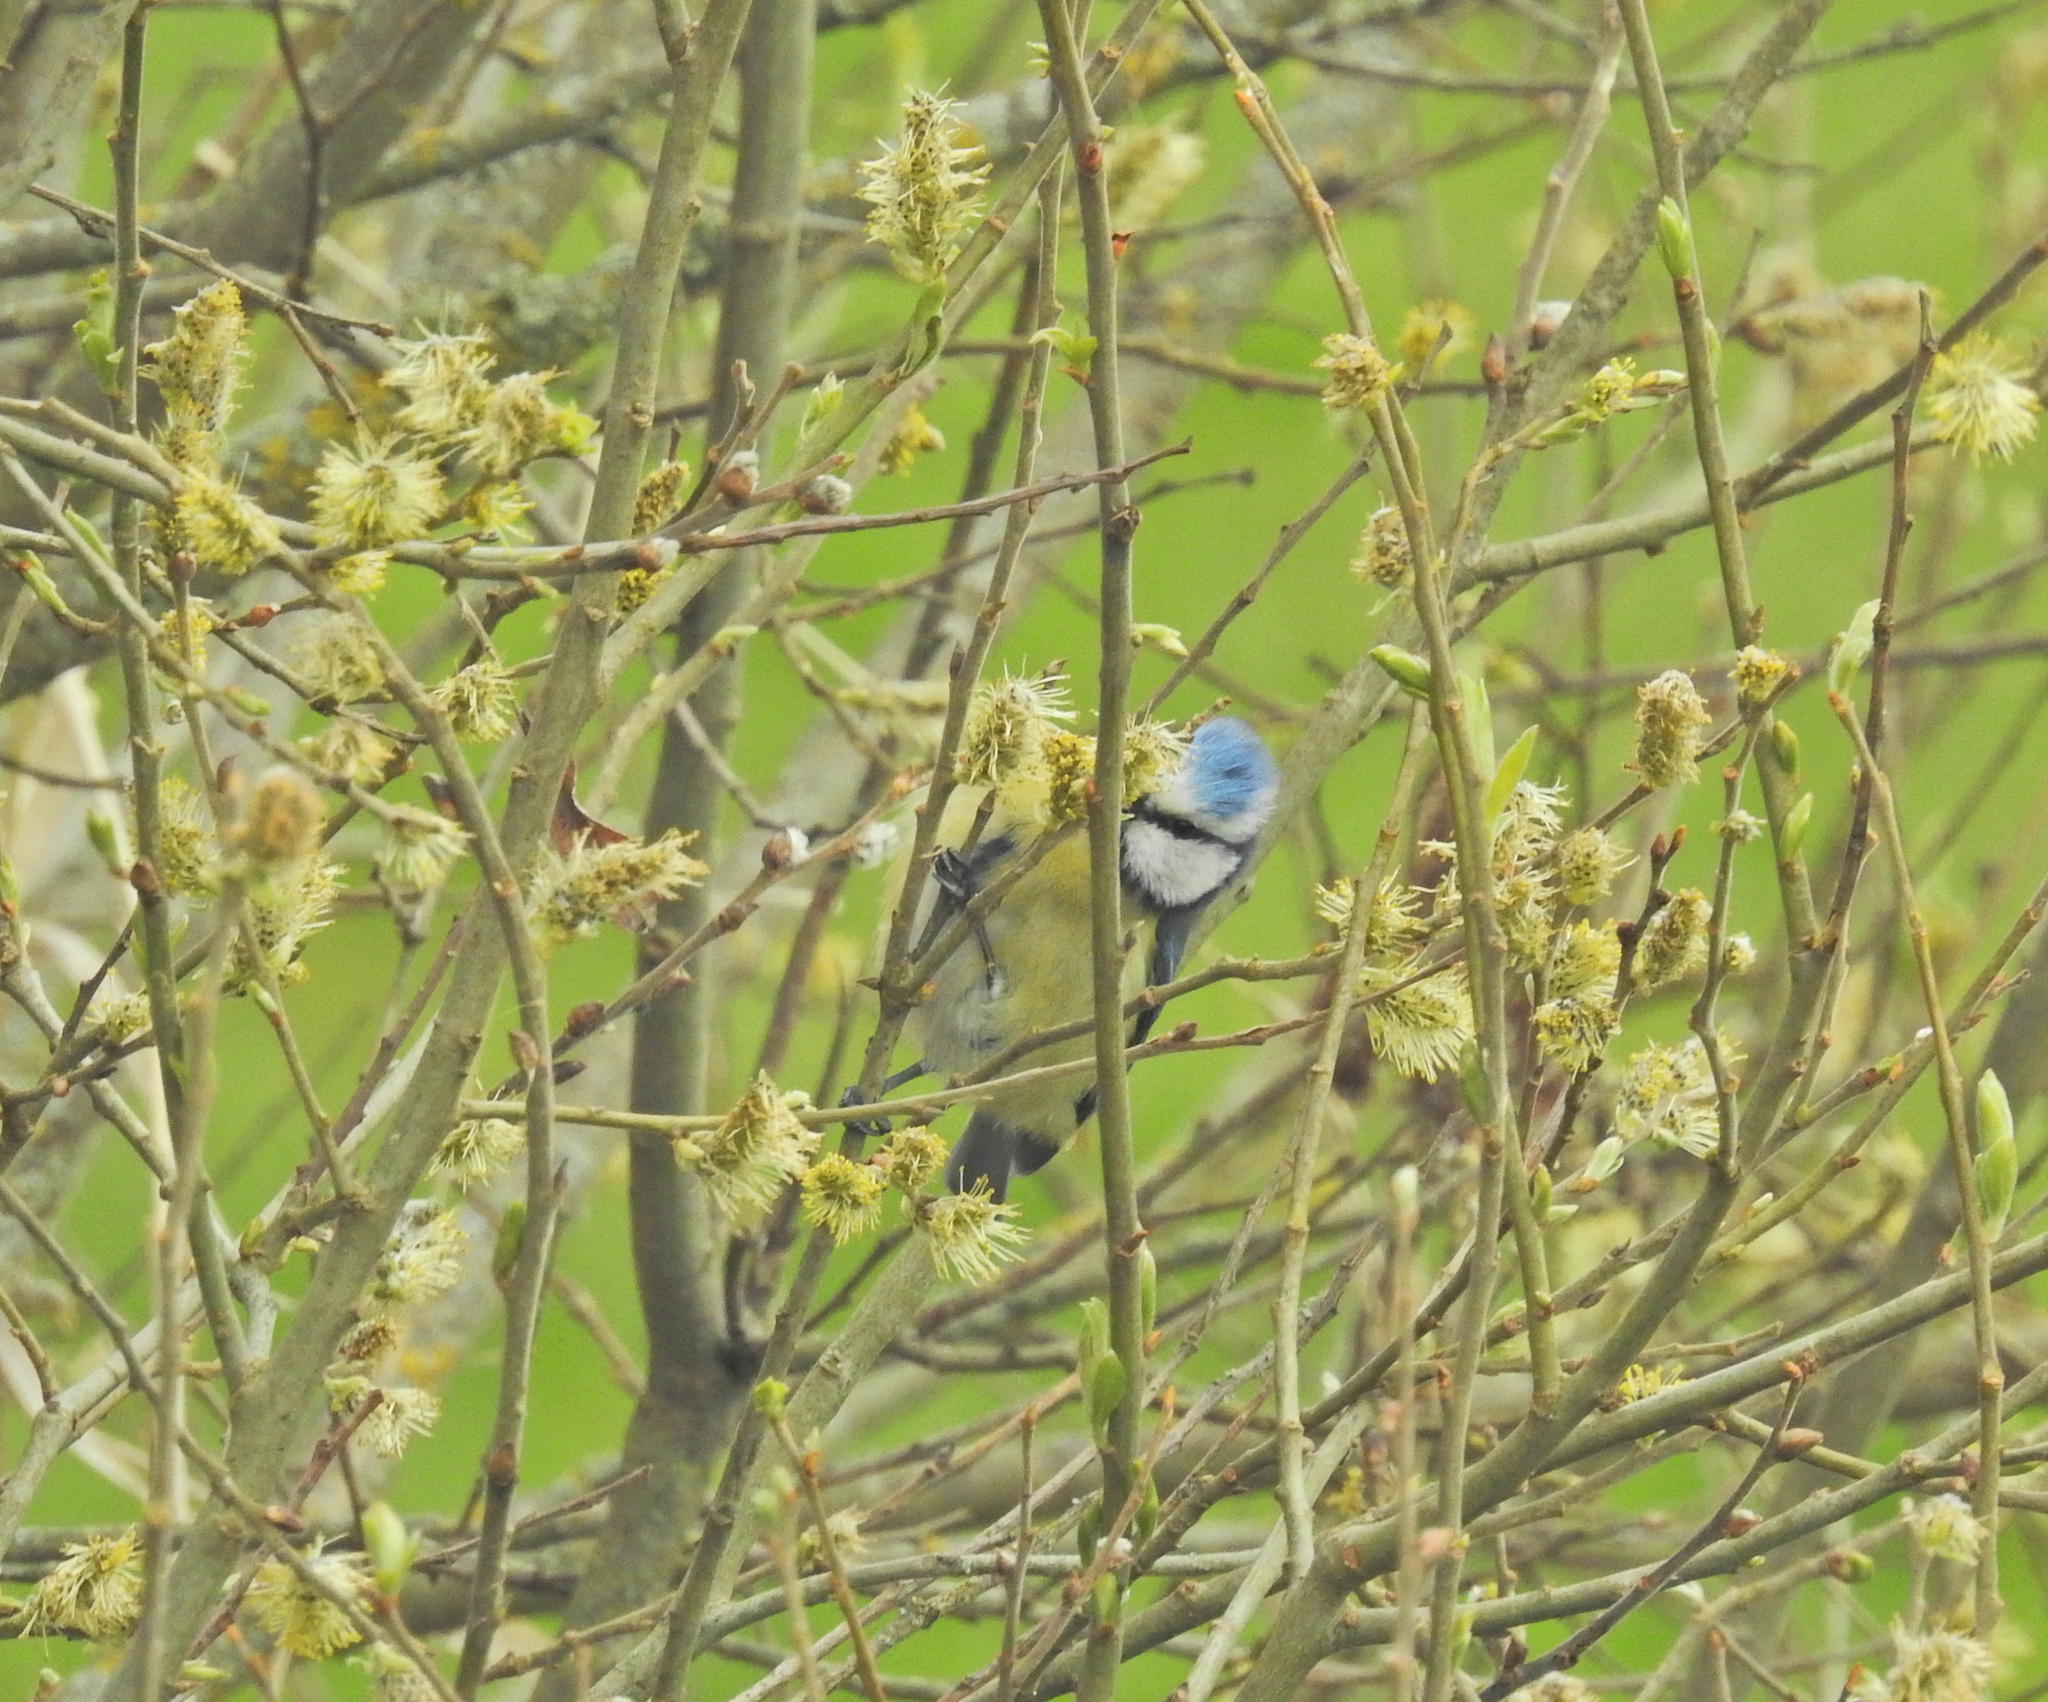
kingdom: Animalia
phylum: Chordata
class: Aves
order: Passeriformes
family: Paridae
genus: Cyanistes
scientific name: Cyanistes caeruleus
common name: Eurasian blue tit
